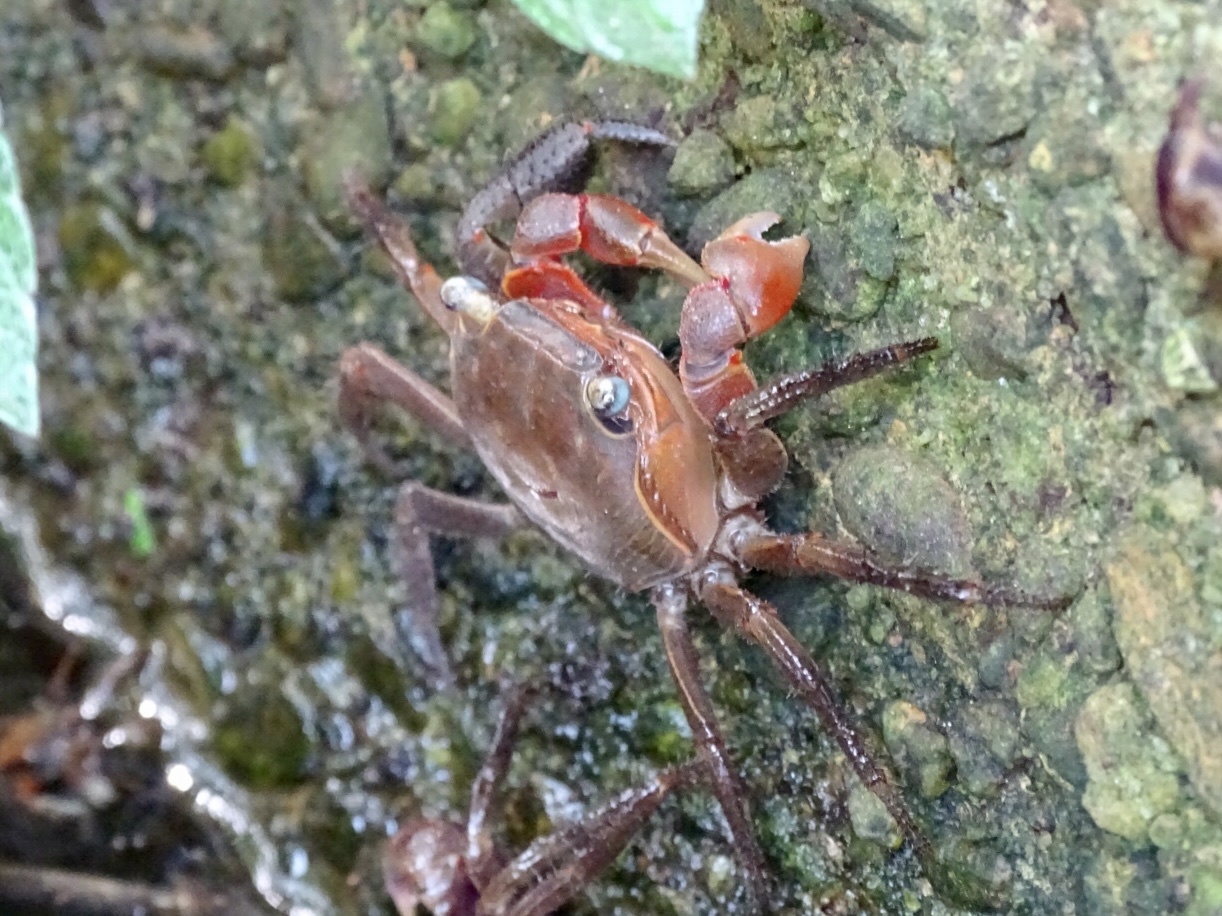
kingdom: Animalia
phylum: Arthropoda
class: Malacostraca
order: Decapoda
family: Sesarmidae
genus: Chiromantes
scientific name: Chiromantes haematocheir
